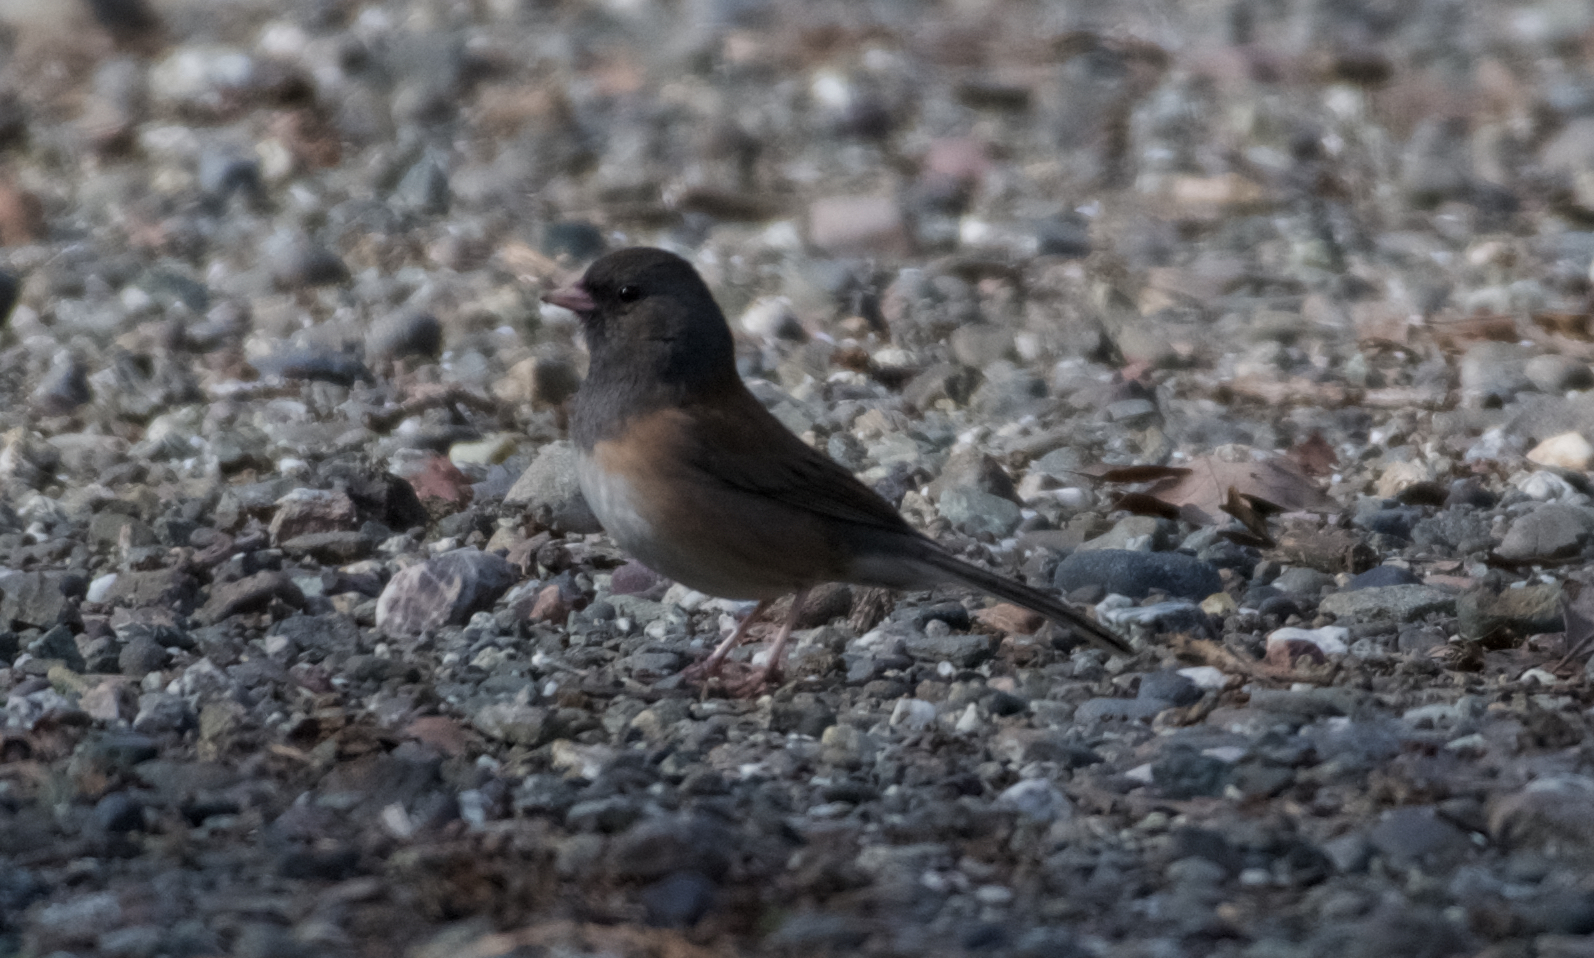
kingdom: Animalia
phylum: Chordata
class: Aves
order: Passeriformes
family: Passerellidae
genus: Junco
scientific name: Junco hyemalis
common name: Dark-eyed junco
